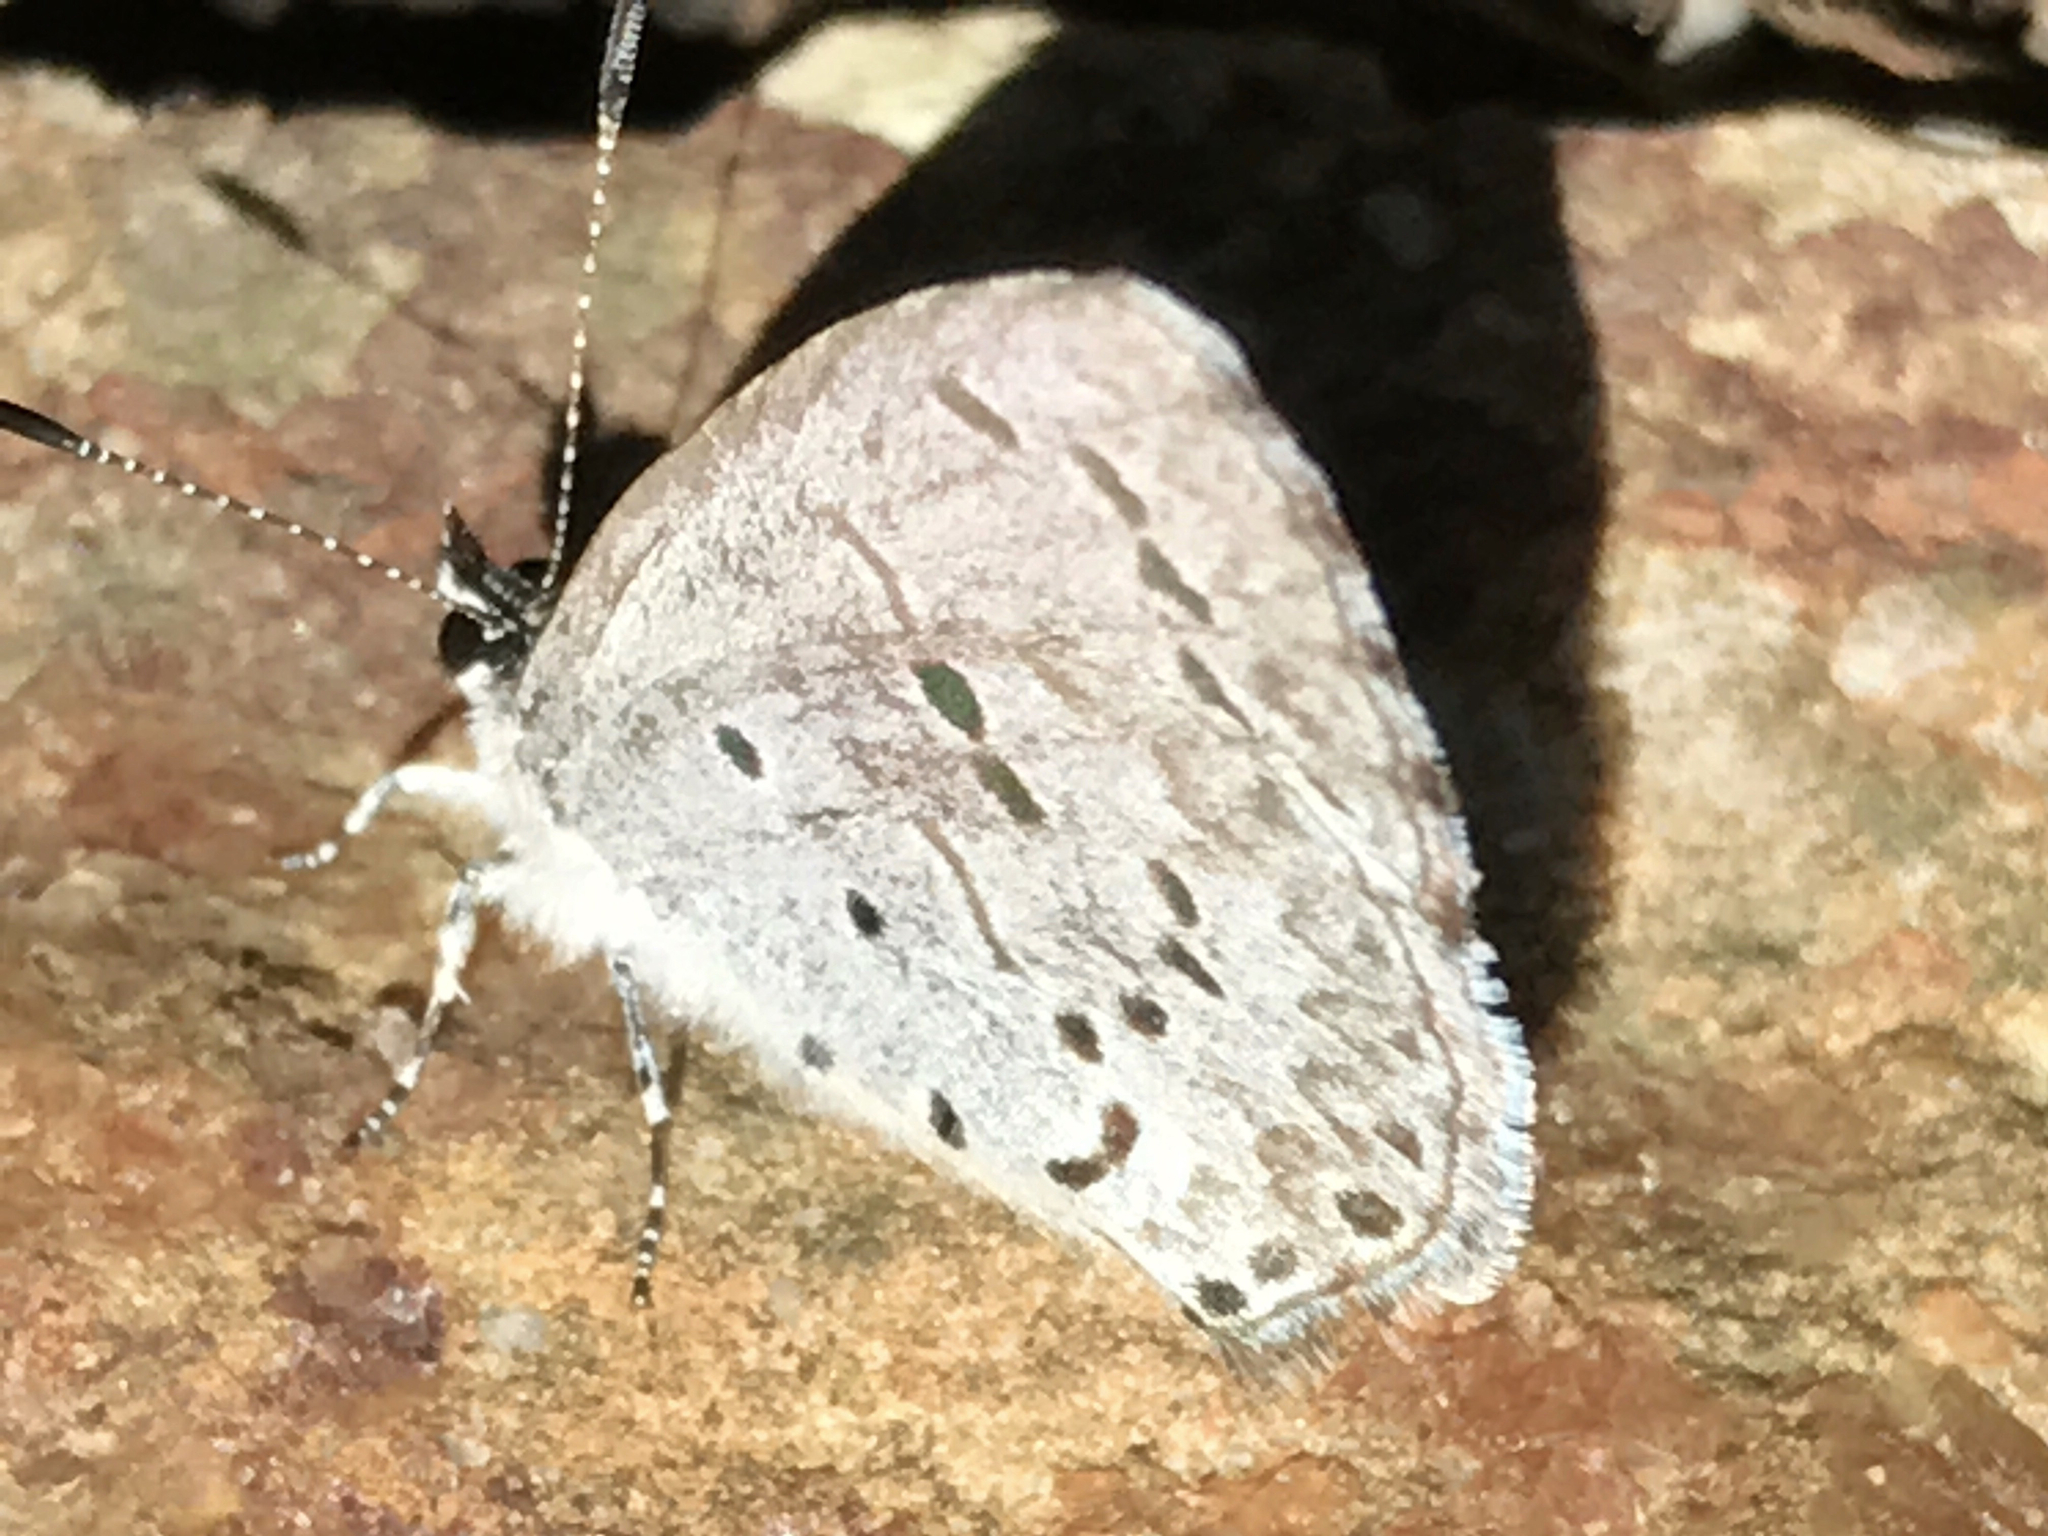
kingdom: Animalia
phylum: Arthropoda
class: Insecta
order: Lepidoptera
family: Lycaenidae
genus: Celastrina
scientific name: Celastrina ladon
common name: Spring azure
